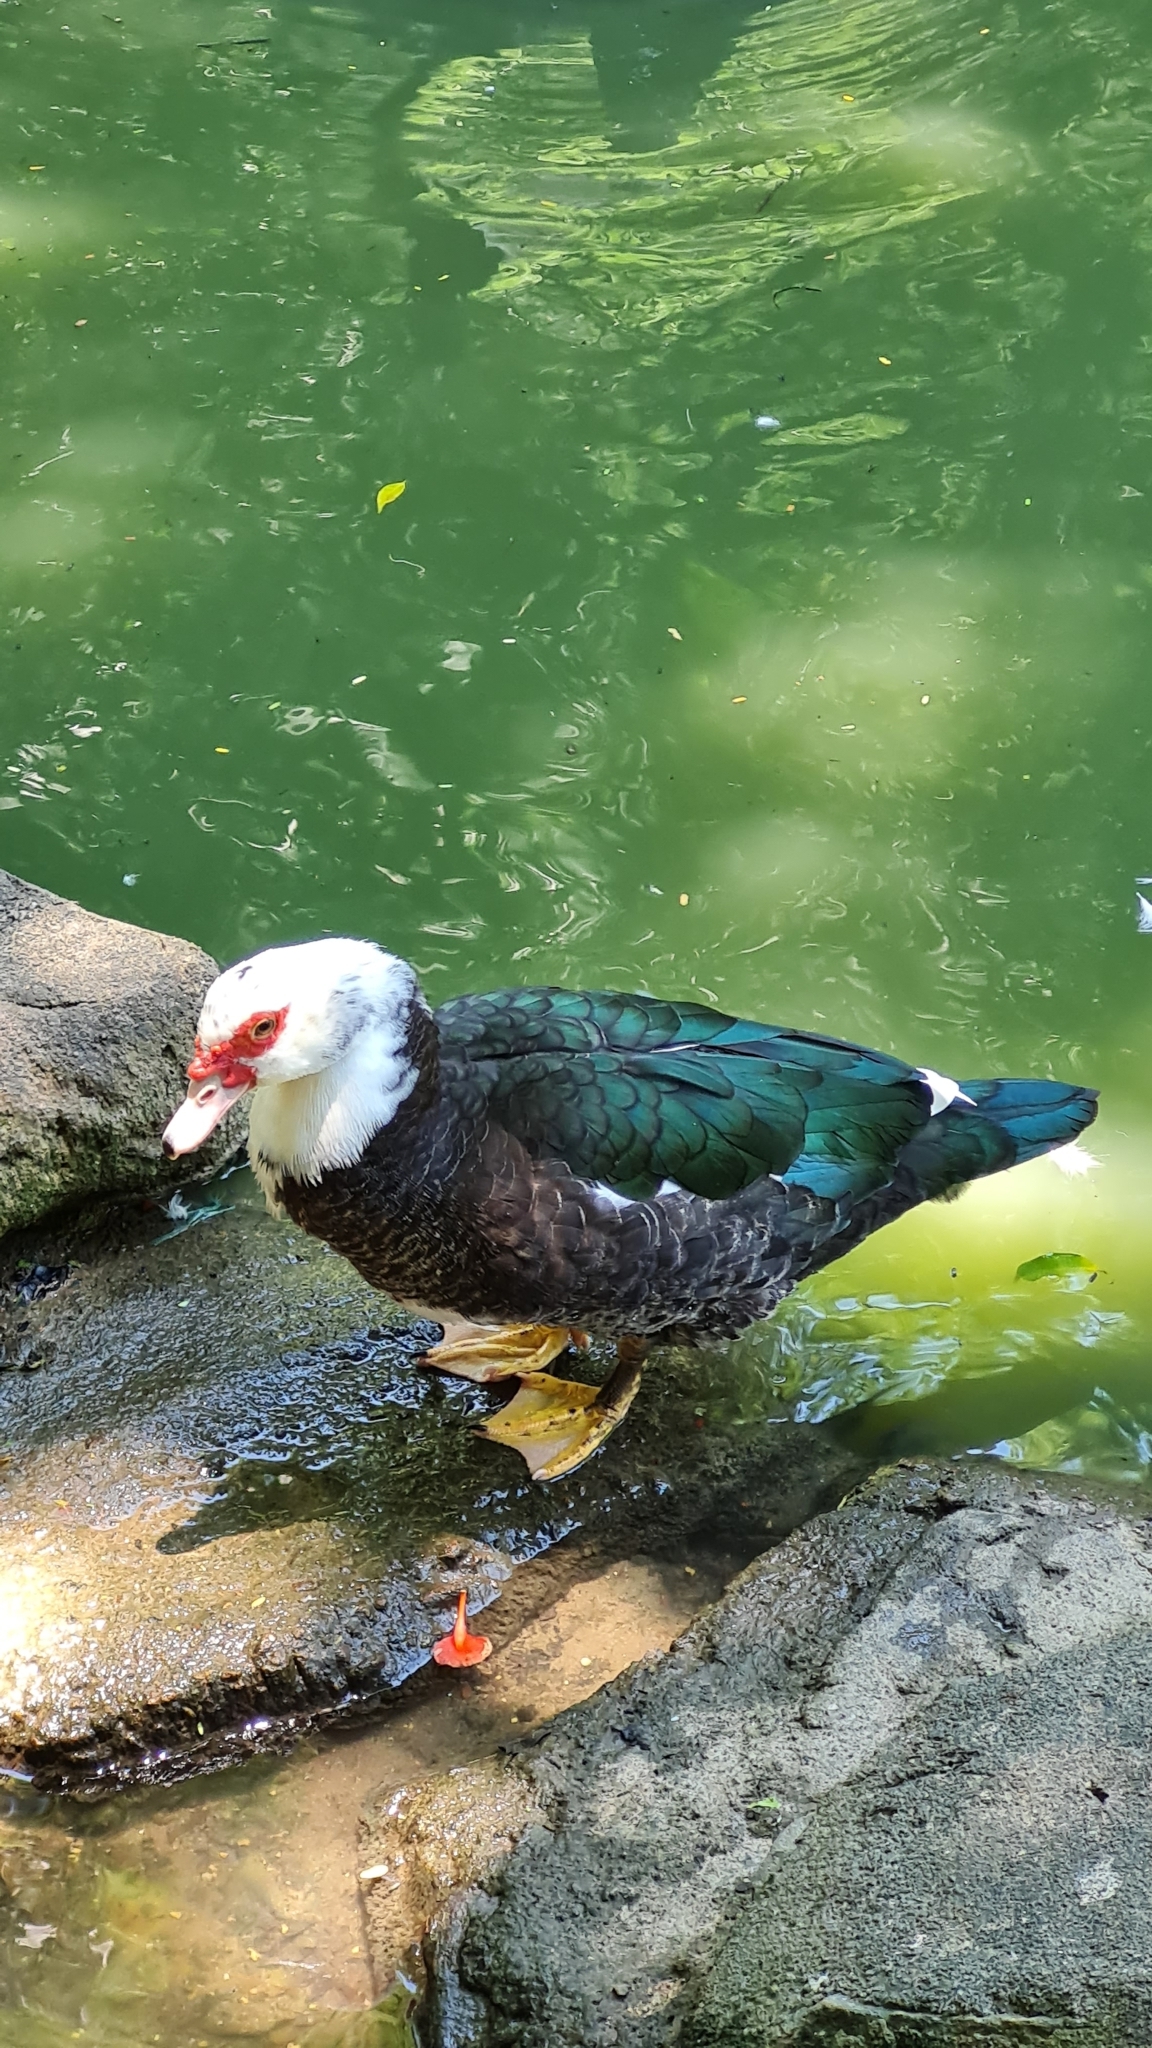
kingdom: Animalia
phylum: Chordata
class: Aves
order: Anseriformes
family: Anatidae
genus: Cairina
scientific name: Cairina moschata
